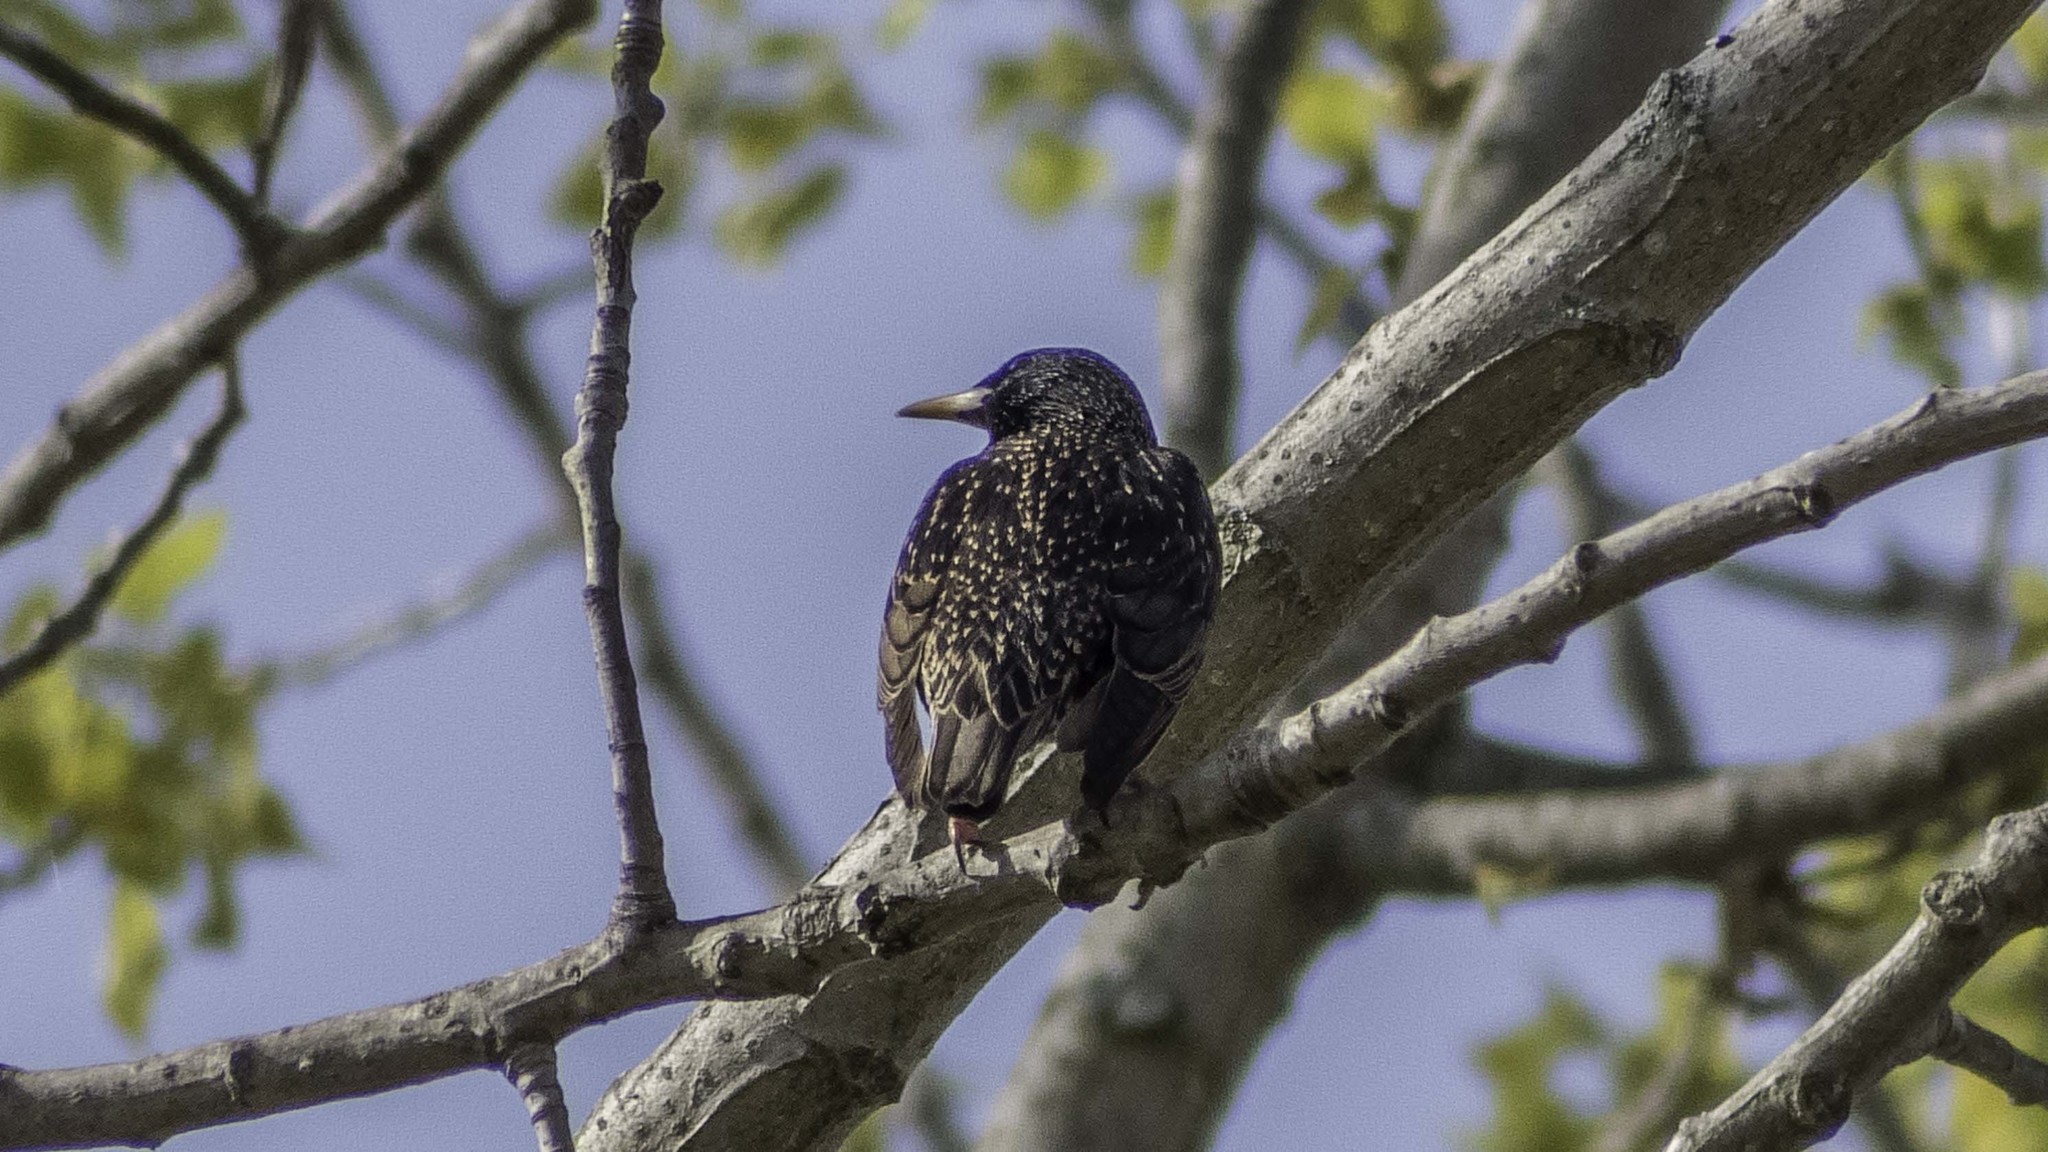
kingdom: Animalia
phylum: Chordata
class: Aves
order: Passeriformes
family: Sturnidae
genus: Sturnus
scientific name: Sturnus vulgaris
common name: Common starling
